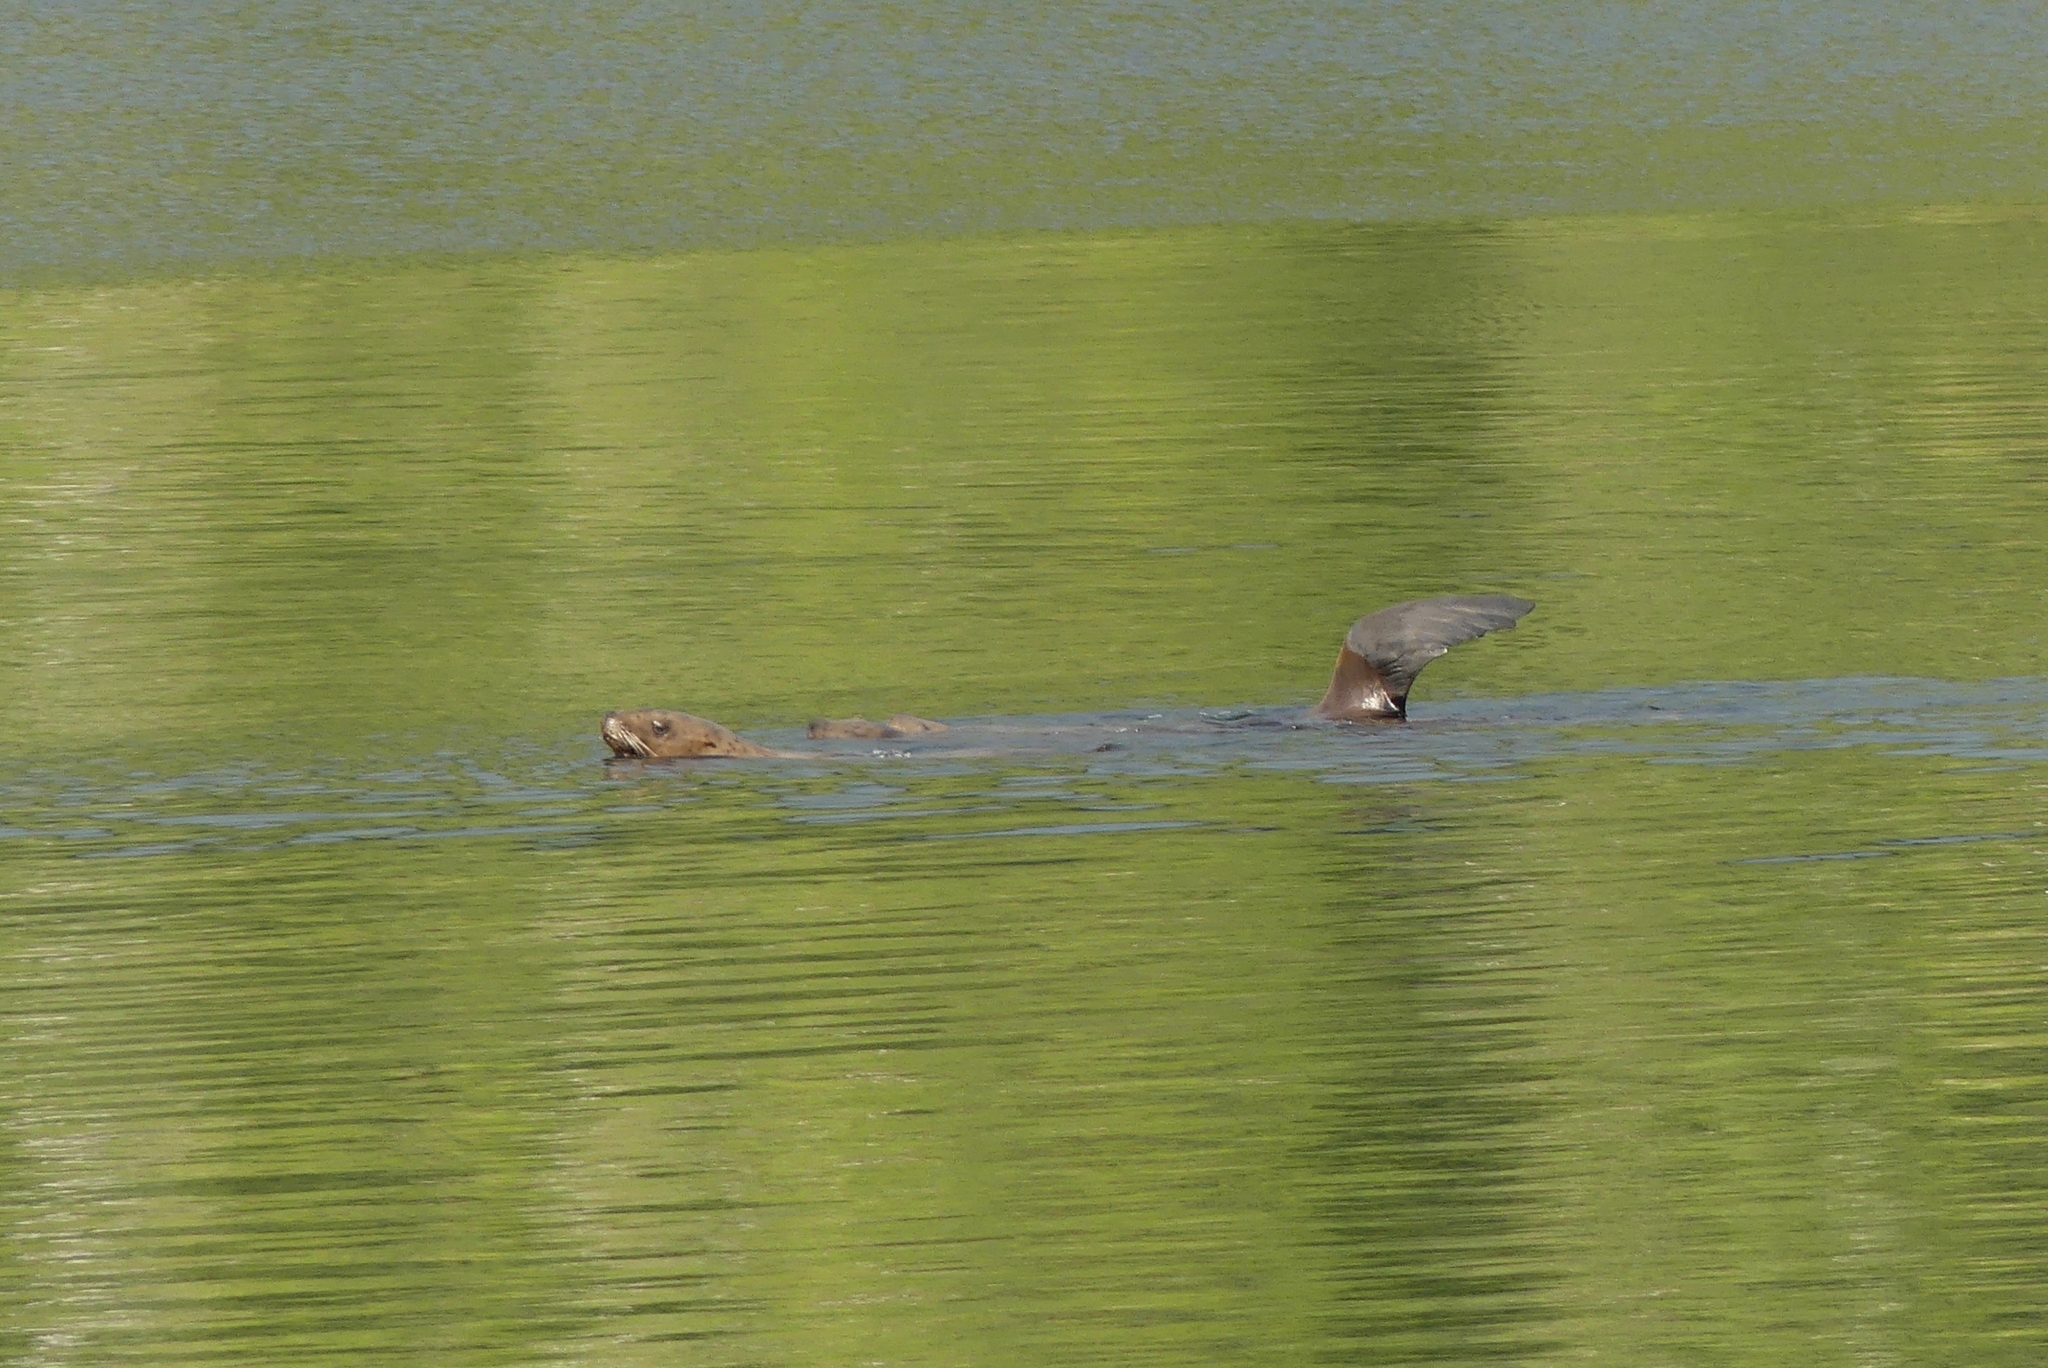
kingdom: Animalia
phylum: Chordata
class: Mammalia
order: Carnivora
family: Otariidae
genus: Eumetopias
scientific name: Eumetopias jubatus
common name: Steller sea lion
